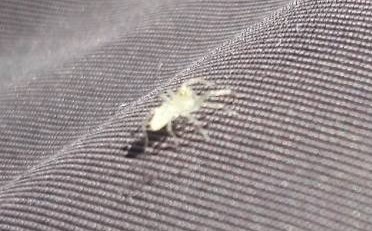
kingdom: Animalia
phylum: Arthropoda
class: Arachnida
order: Araneae
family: Salticidae
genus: Lyssomanes
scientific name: Lyssomanes viridis
